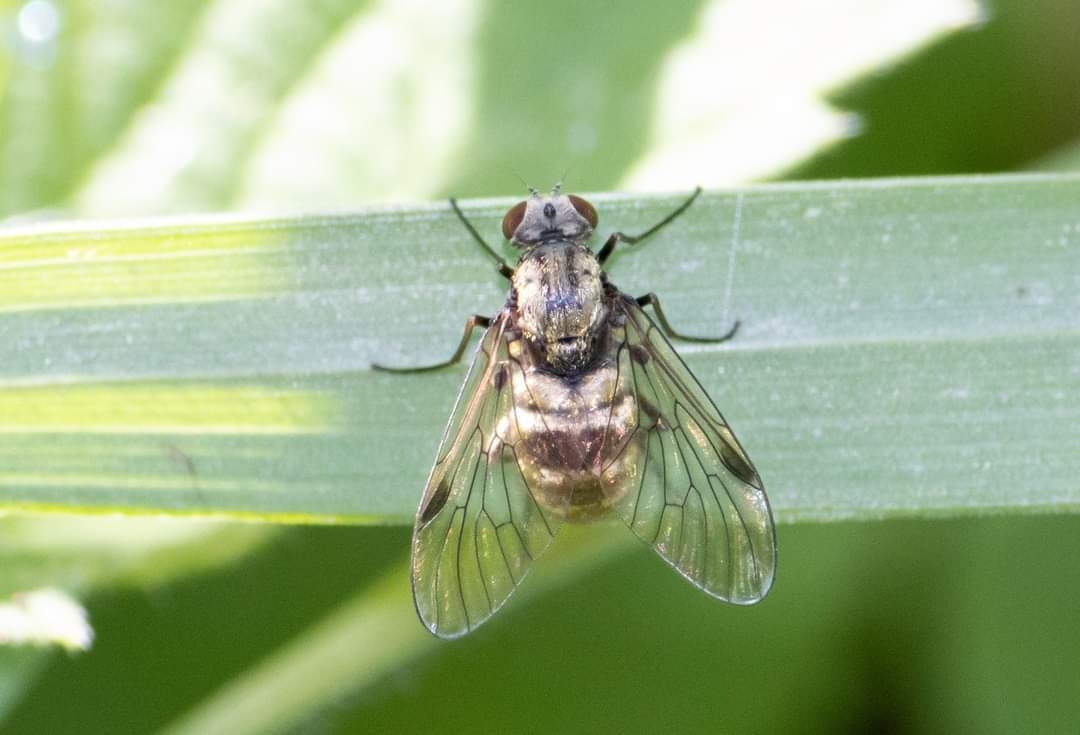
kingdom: Animalia
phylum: Arthropoda
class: Insecta
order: Diptera
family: Rhagionidae
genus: Chrysopilus
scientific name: Chrysopilus cristatus
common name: Black snipefly
